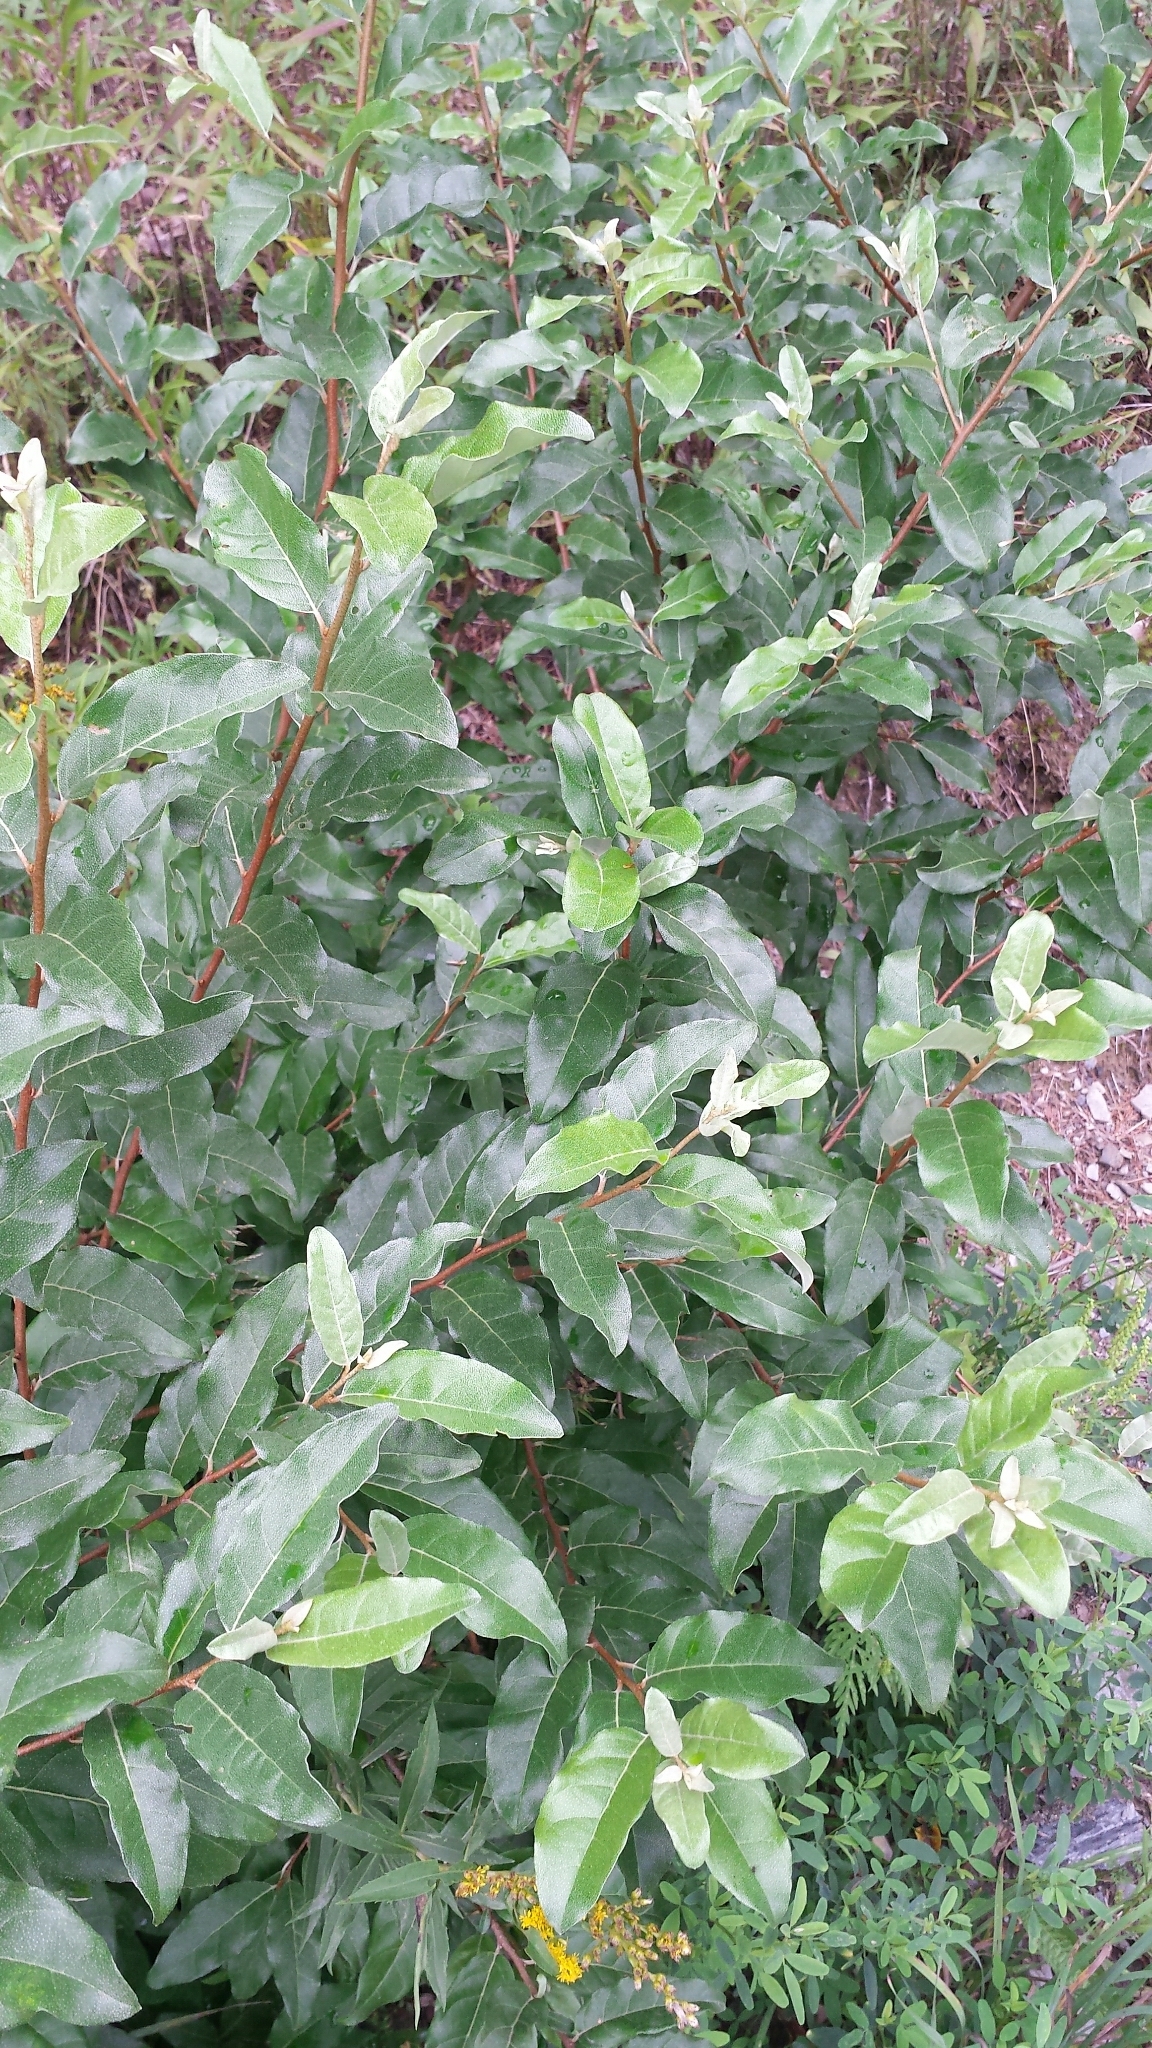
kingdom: Plantae
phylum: Tracheophyta
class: Magnoliopsida
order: Rosales
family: Elaeagnaceae
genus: Elaeagnus
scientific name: Elaeagnus umbellata
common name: Autumn olive
